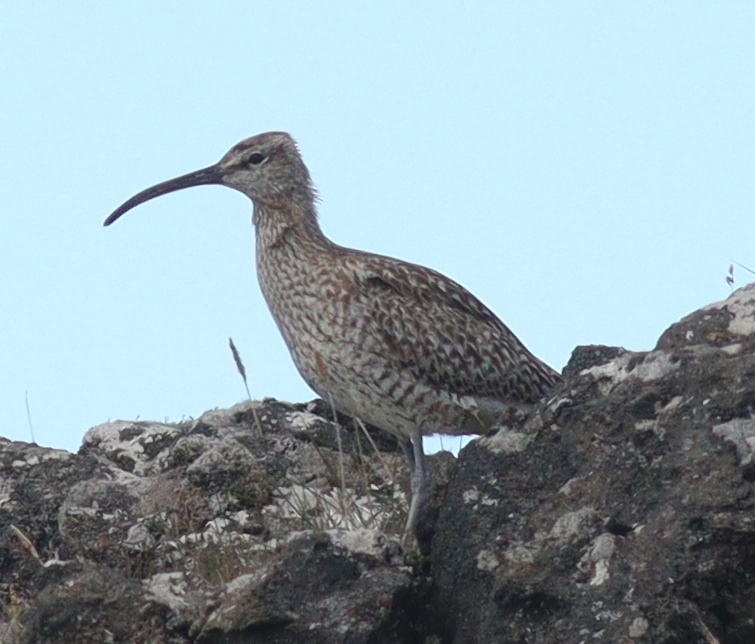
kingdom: Animalia
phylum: Chordata
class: Aves
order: Charadriiformes
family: Scolopacidae
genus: Numenius
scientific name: Numenius phaeopus
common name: Whimbrel
